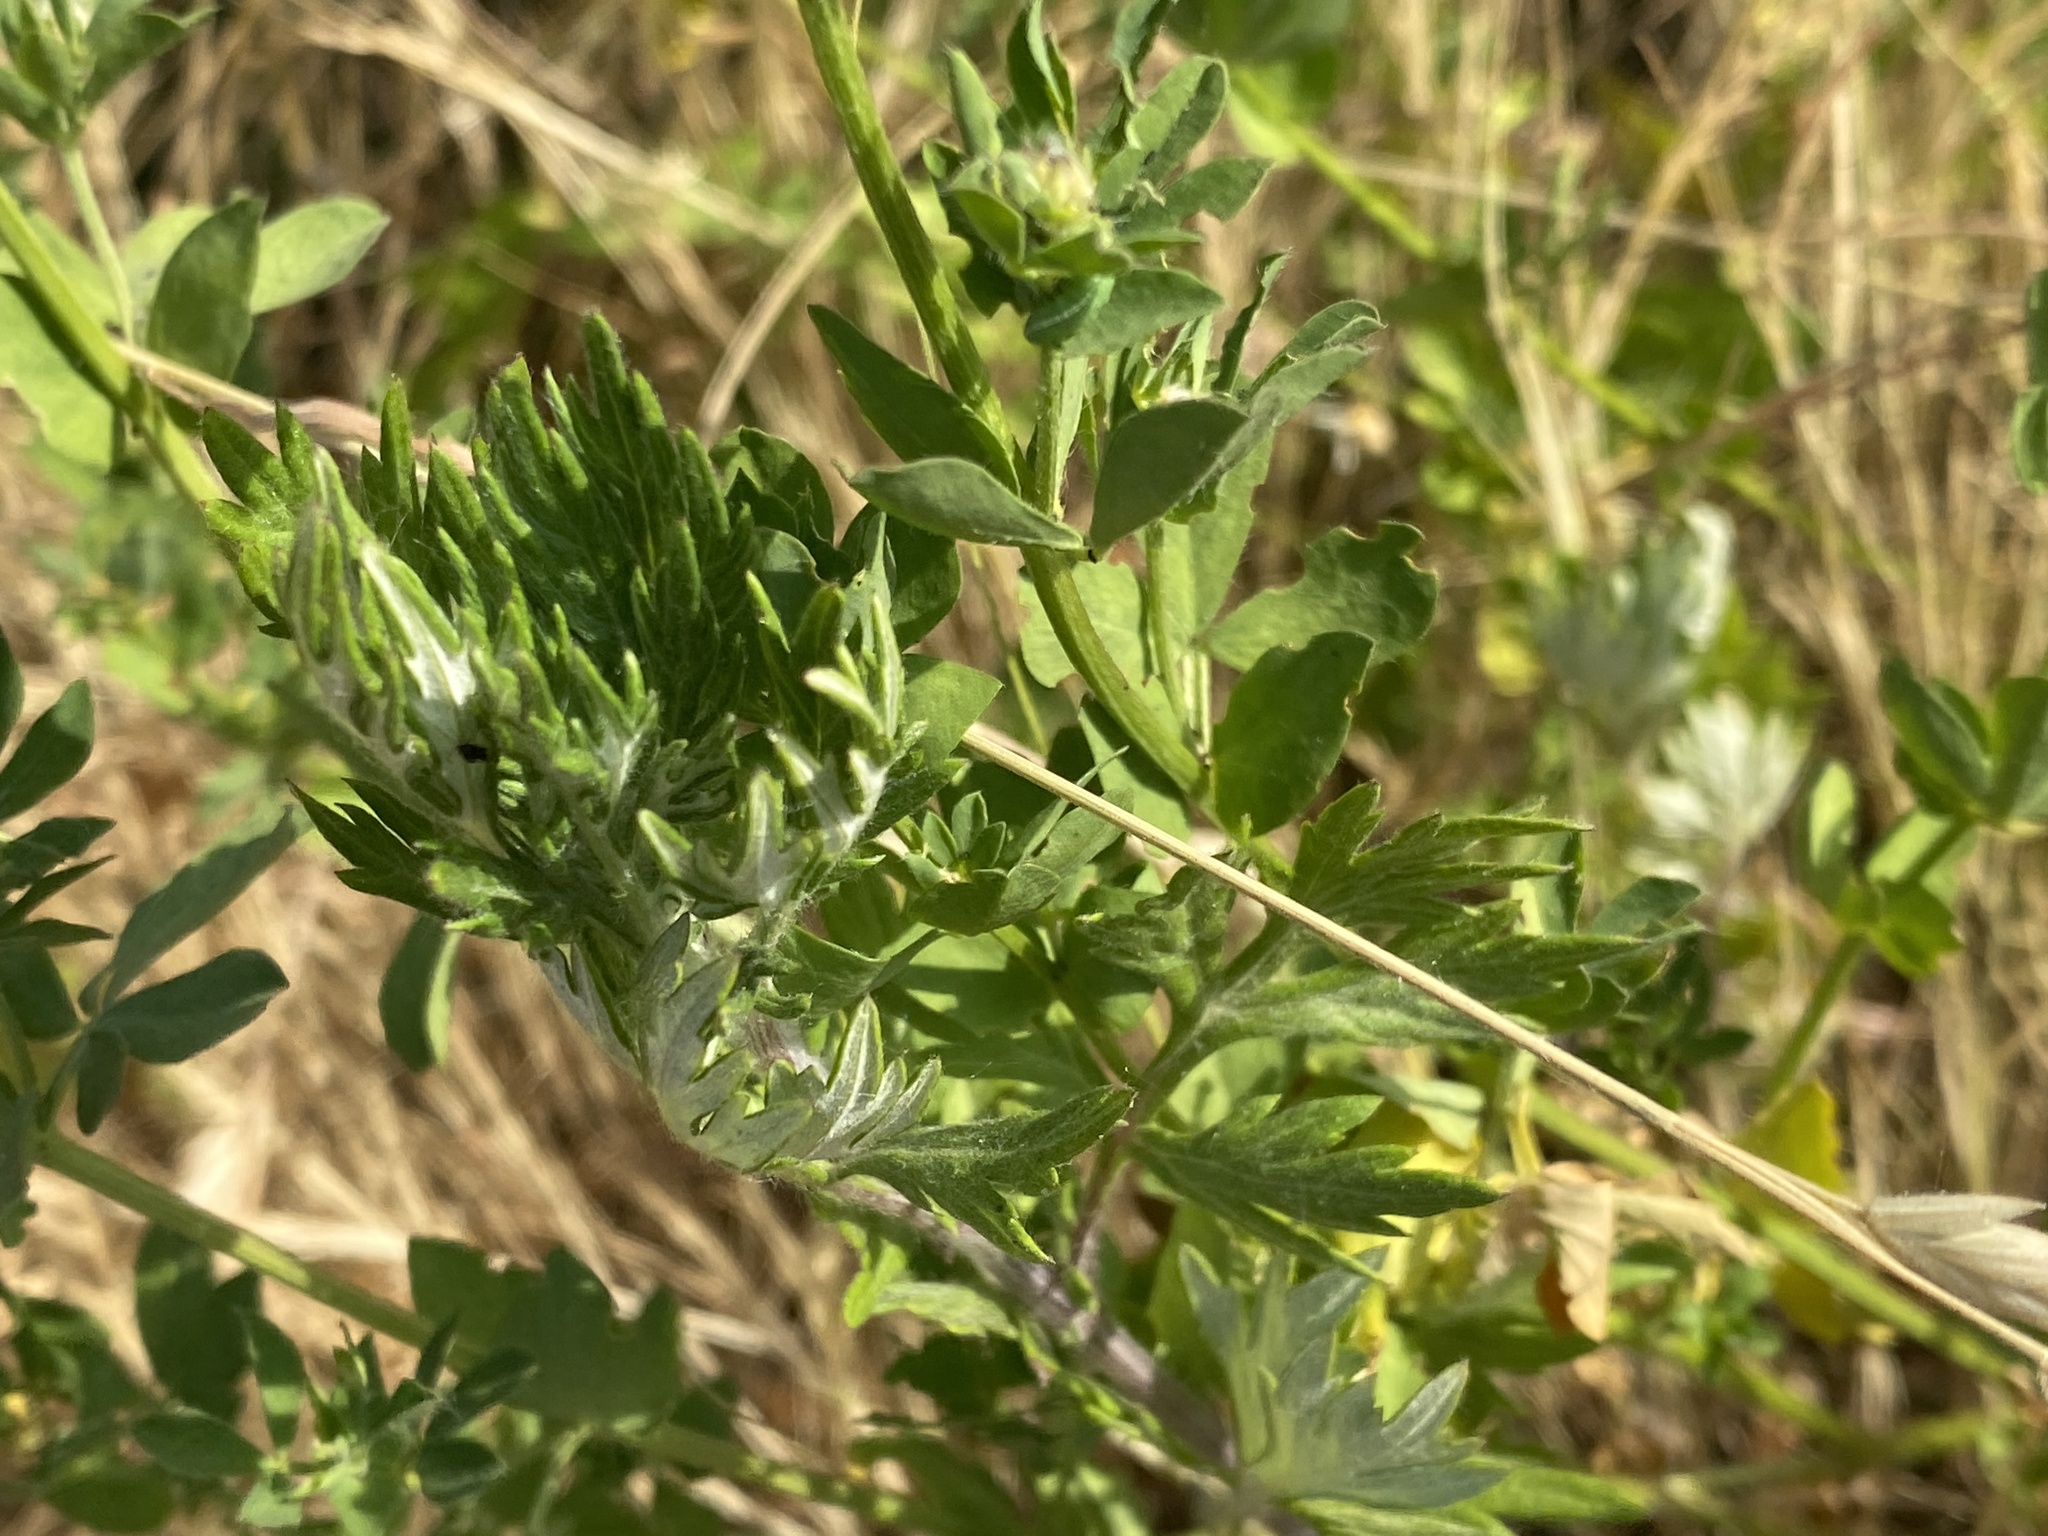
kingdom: Plantae
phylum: Tracheophyta
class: Magnoliopsida
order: Fabales
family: Fabaceae
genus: Lotus
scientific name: Lotus corniculatus
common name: Common bird's-foot-trefoil
